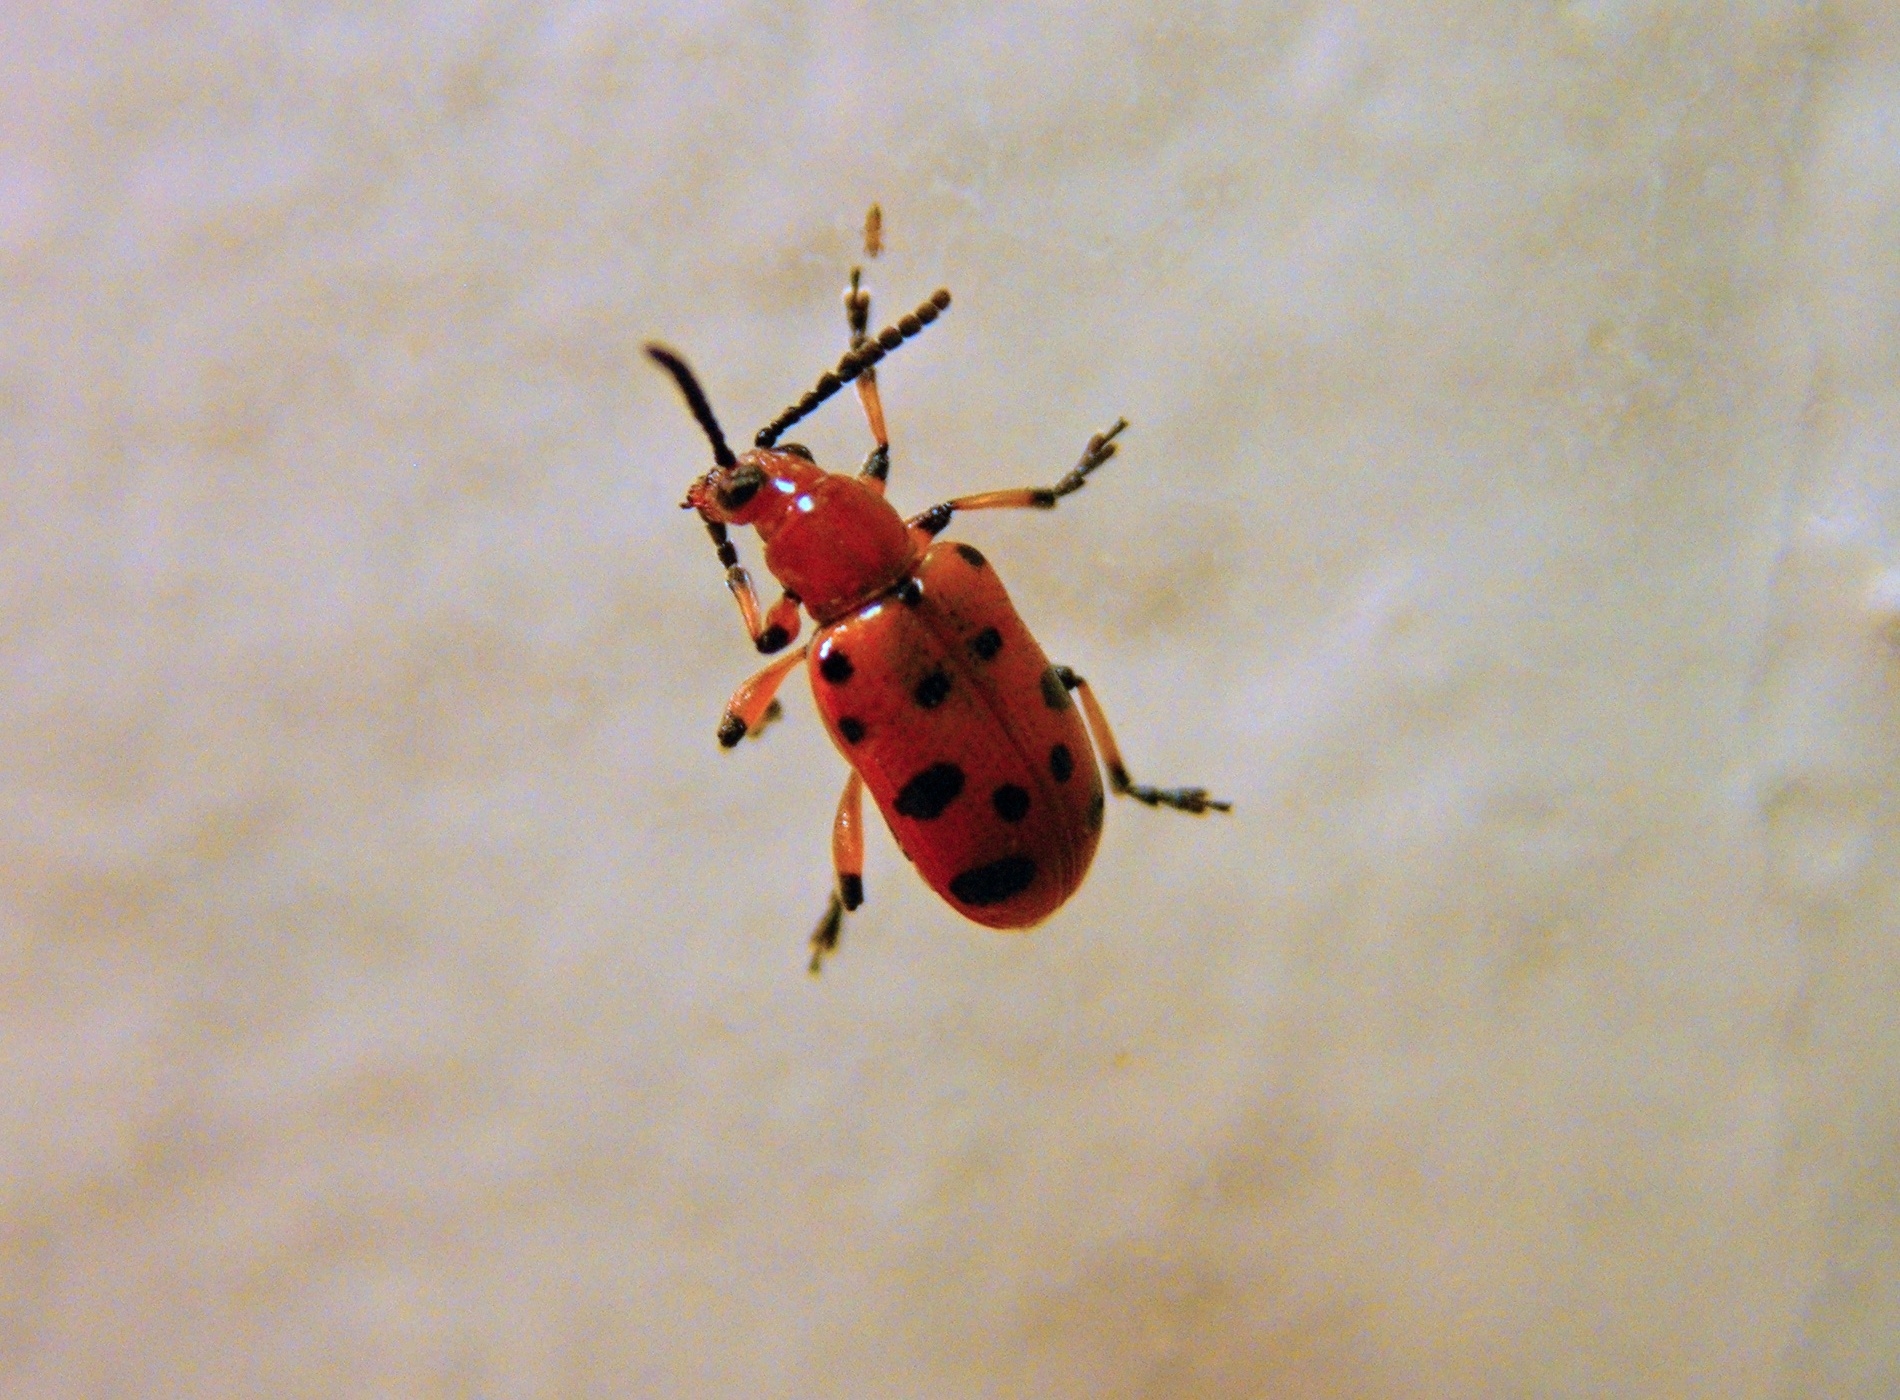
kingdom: Animalia
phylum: Arthropoda
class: Insecta
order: Coleoptera
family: Chrysomelidae
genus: Crioceris
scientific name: Crioceris duodecimpunctata
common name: Twelve-spotted asparagus beetle
